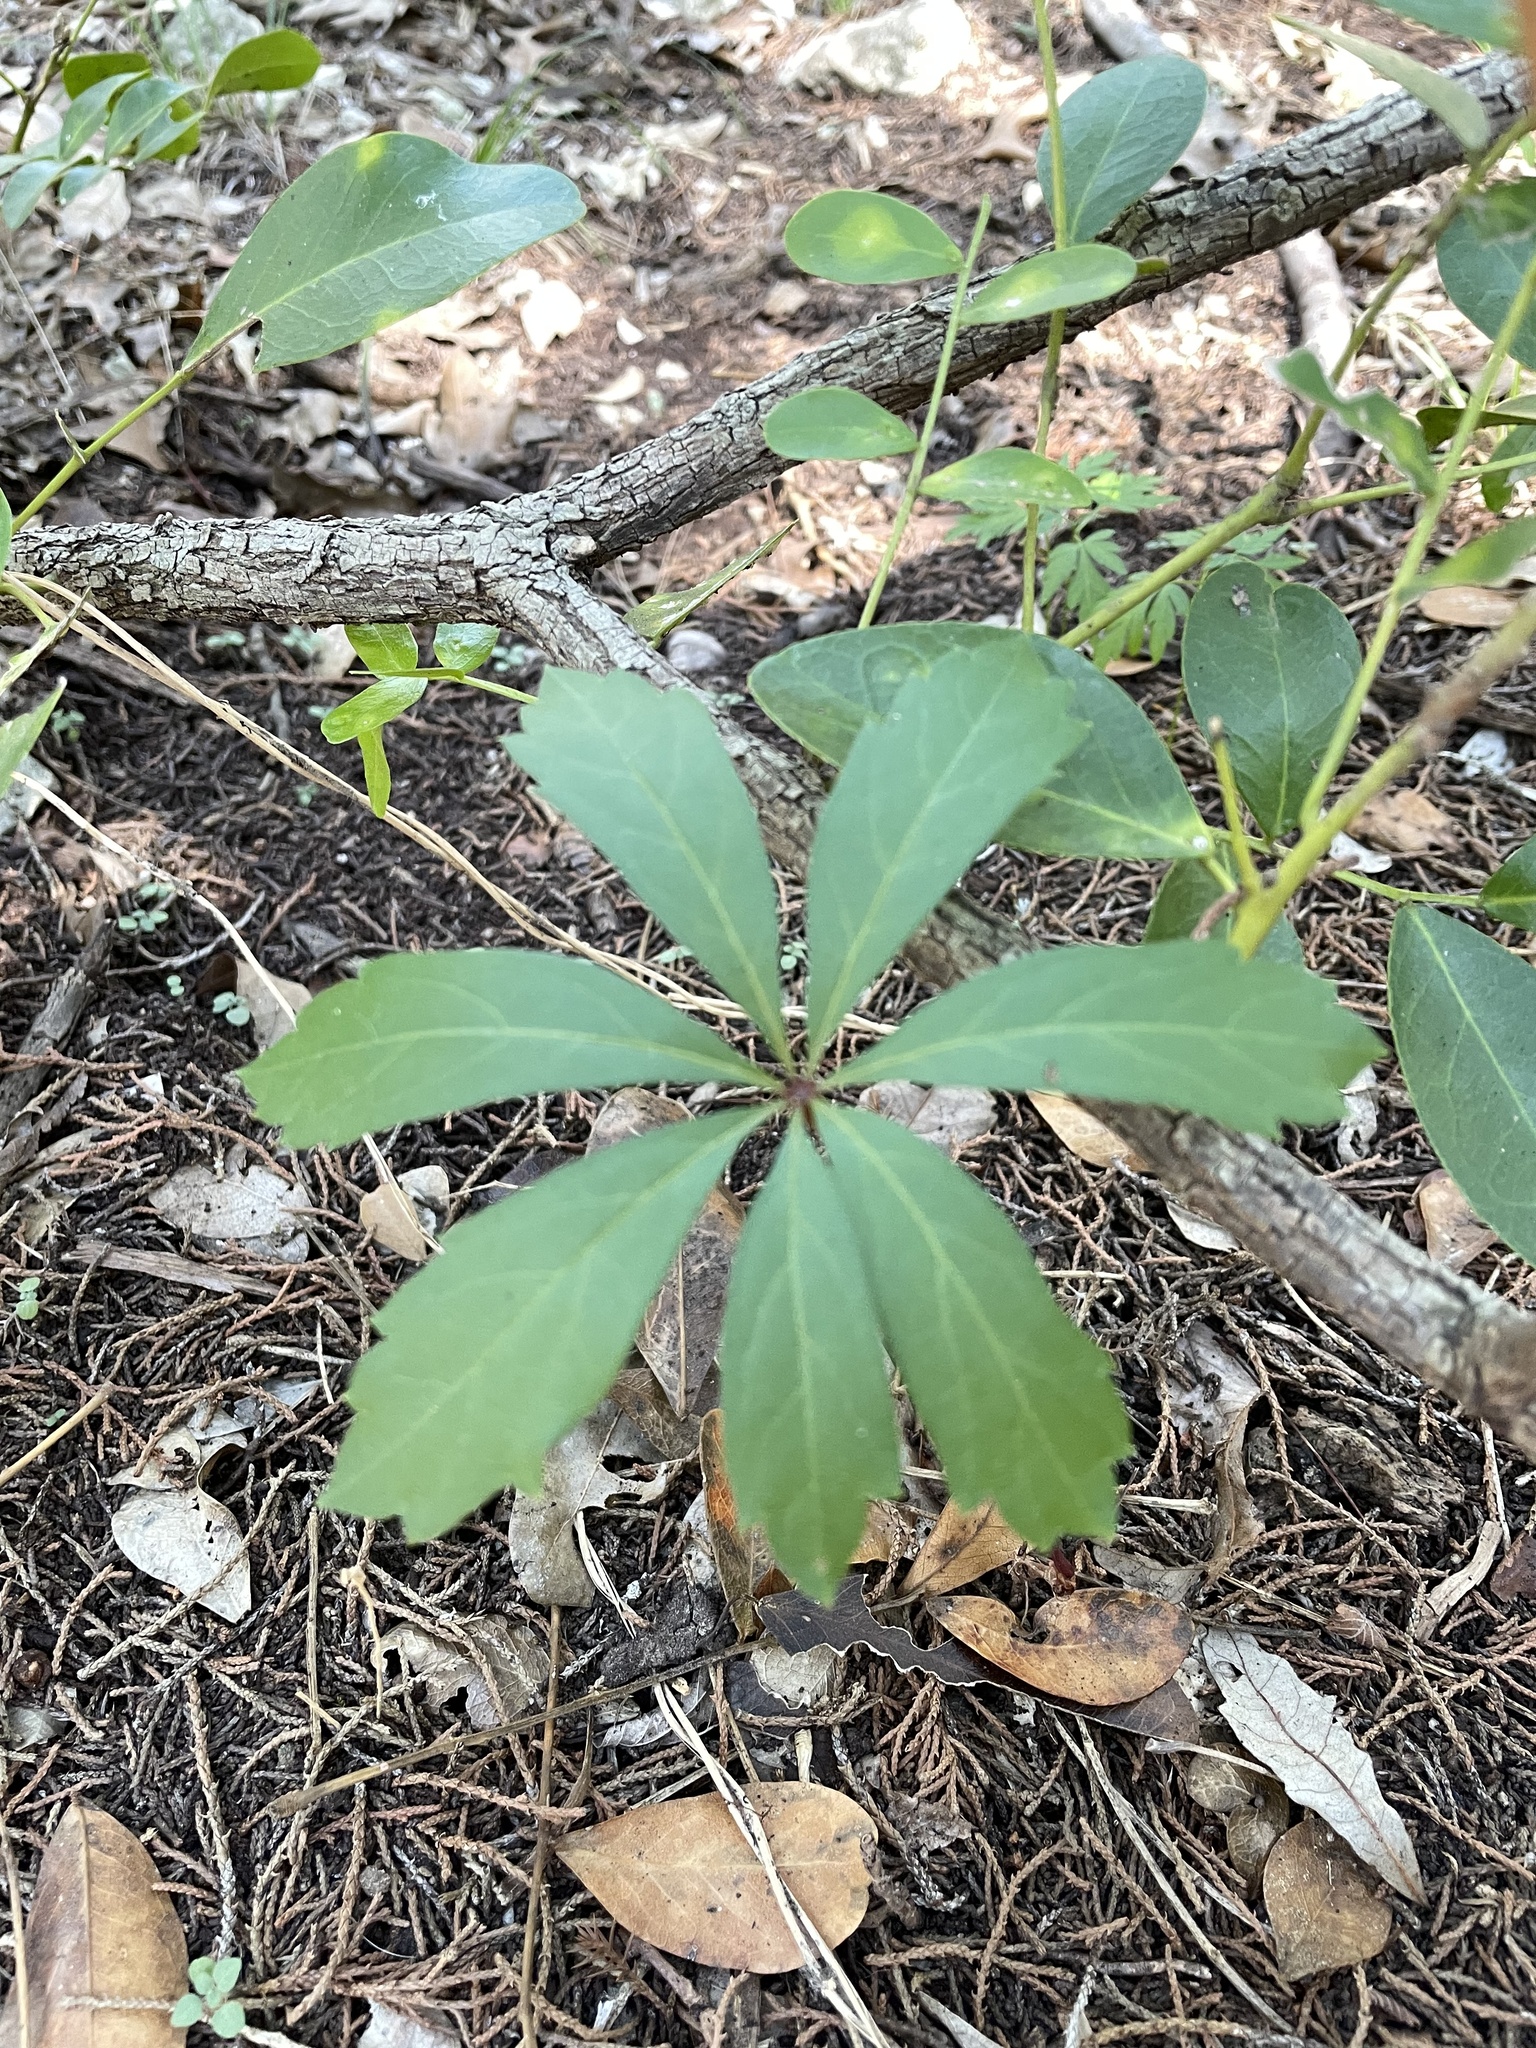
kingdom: Plantae
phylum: Tracheophyta
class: Magnoliopsida
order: Vitales
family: Vitaceae
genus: Parthenocissus
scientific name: Parthenocissus heptaphylla
